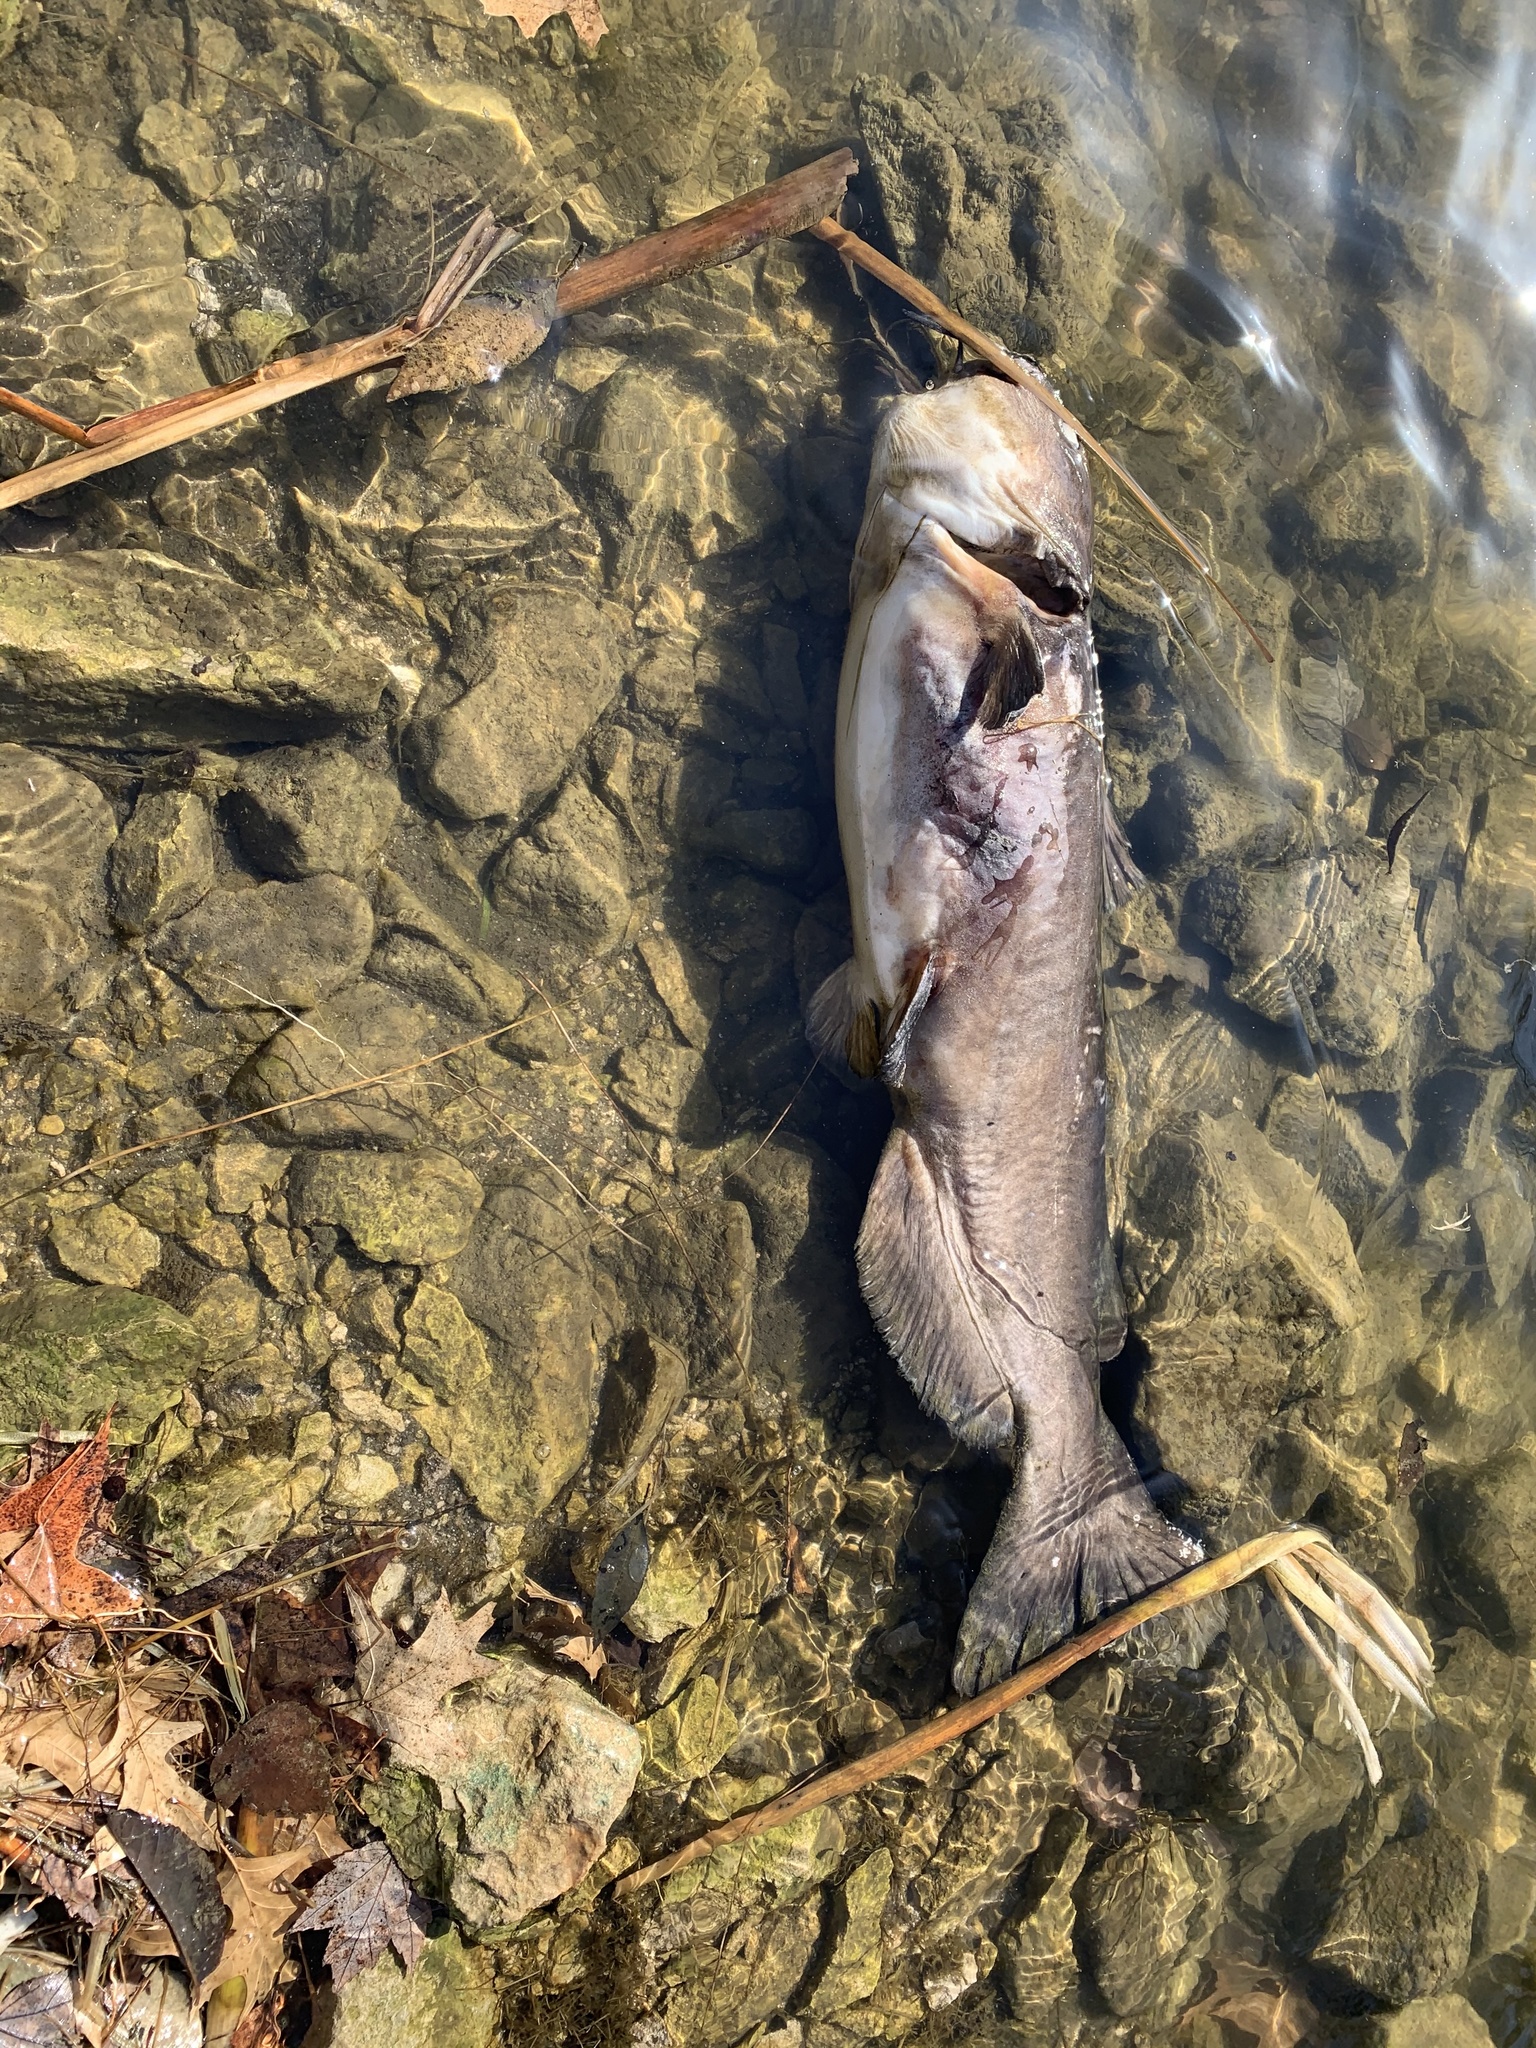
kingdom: Animalia
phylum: Chordata
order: Siluriformes
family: Ictaluridae
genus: Ictalurus
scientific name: Ictalurus punctatus
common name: Channel catfish
